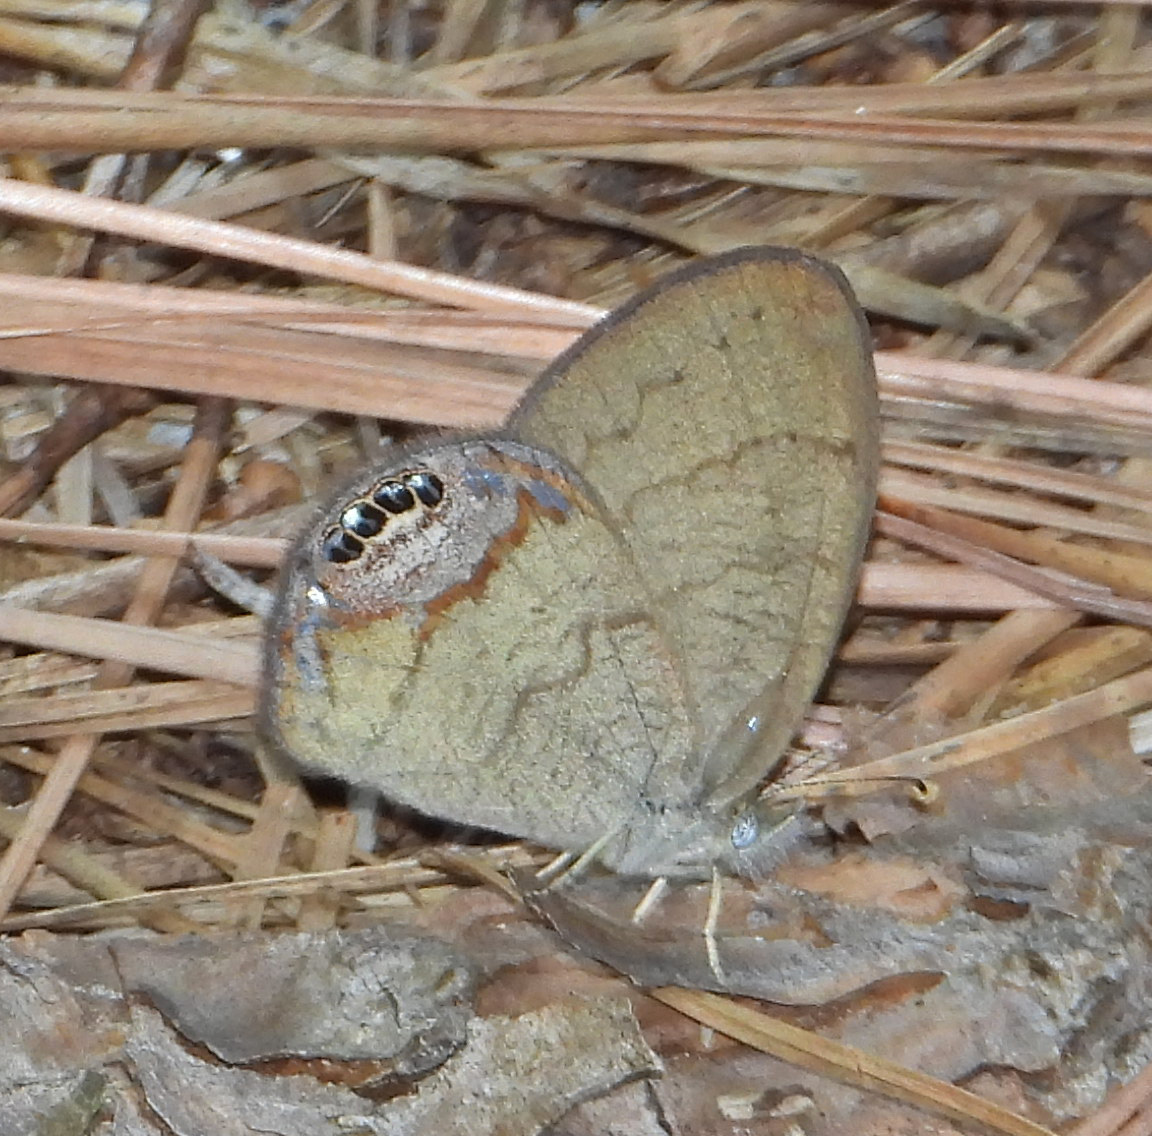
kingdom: Animalia
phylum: Arthropoda
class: Insecta
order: Lepidoptera
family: Nymphalidae
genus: Euptychia
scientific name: Euptychia cornelius
